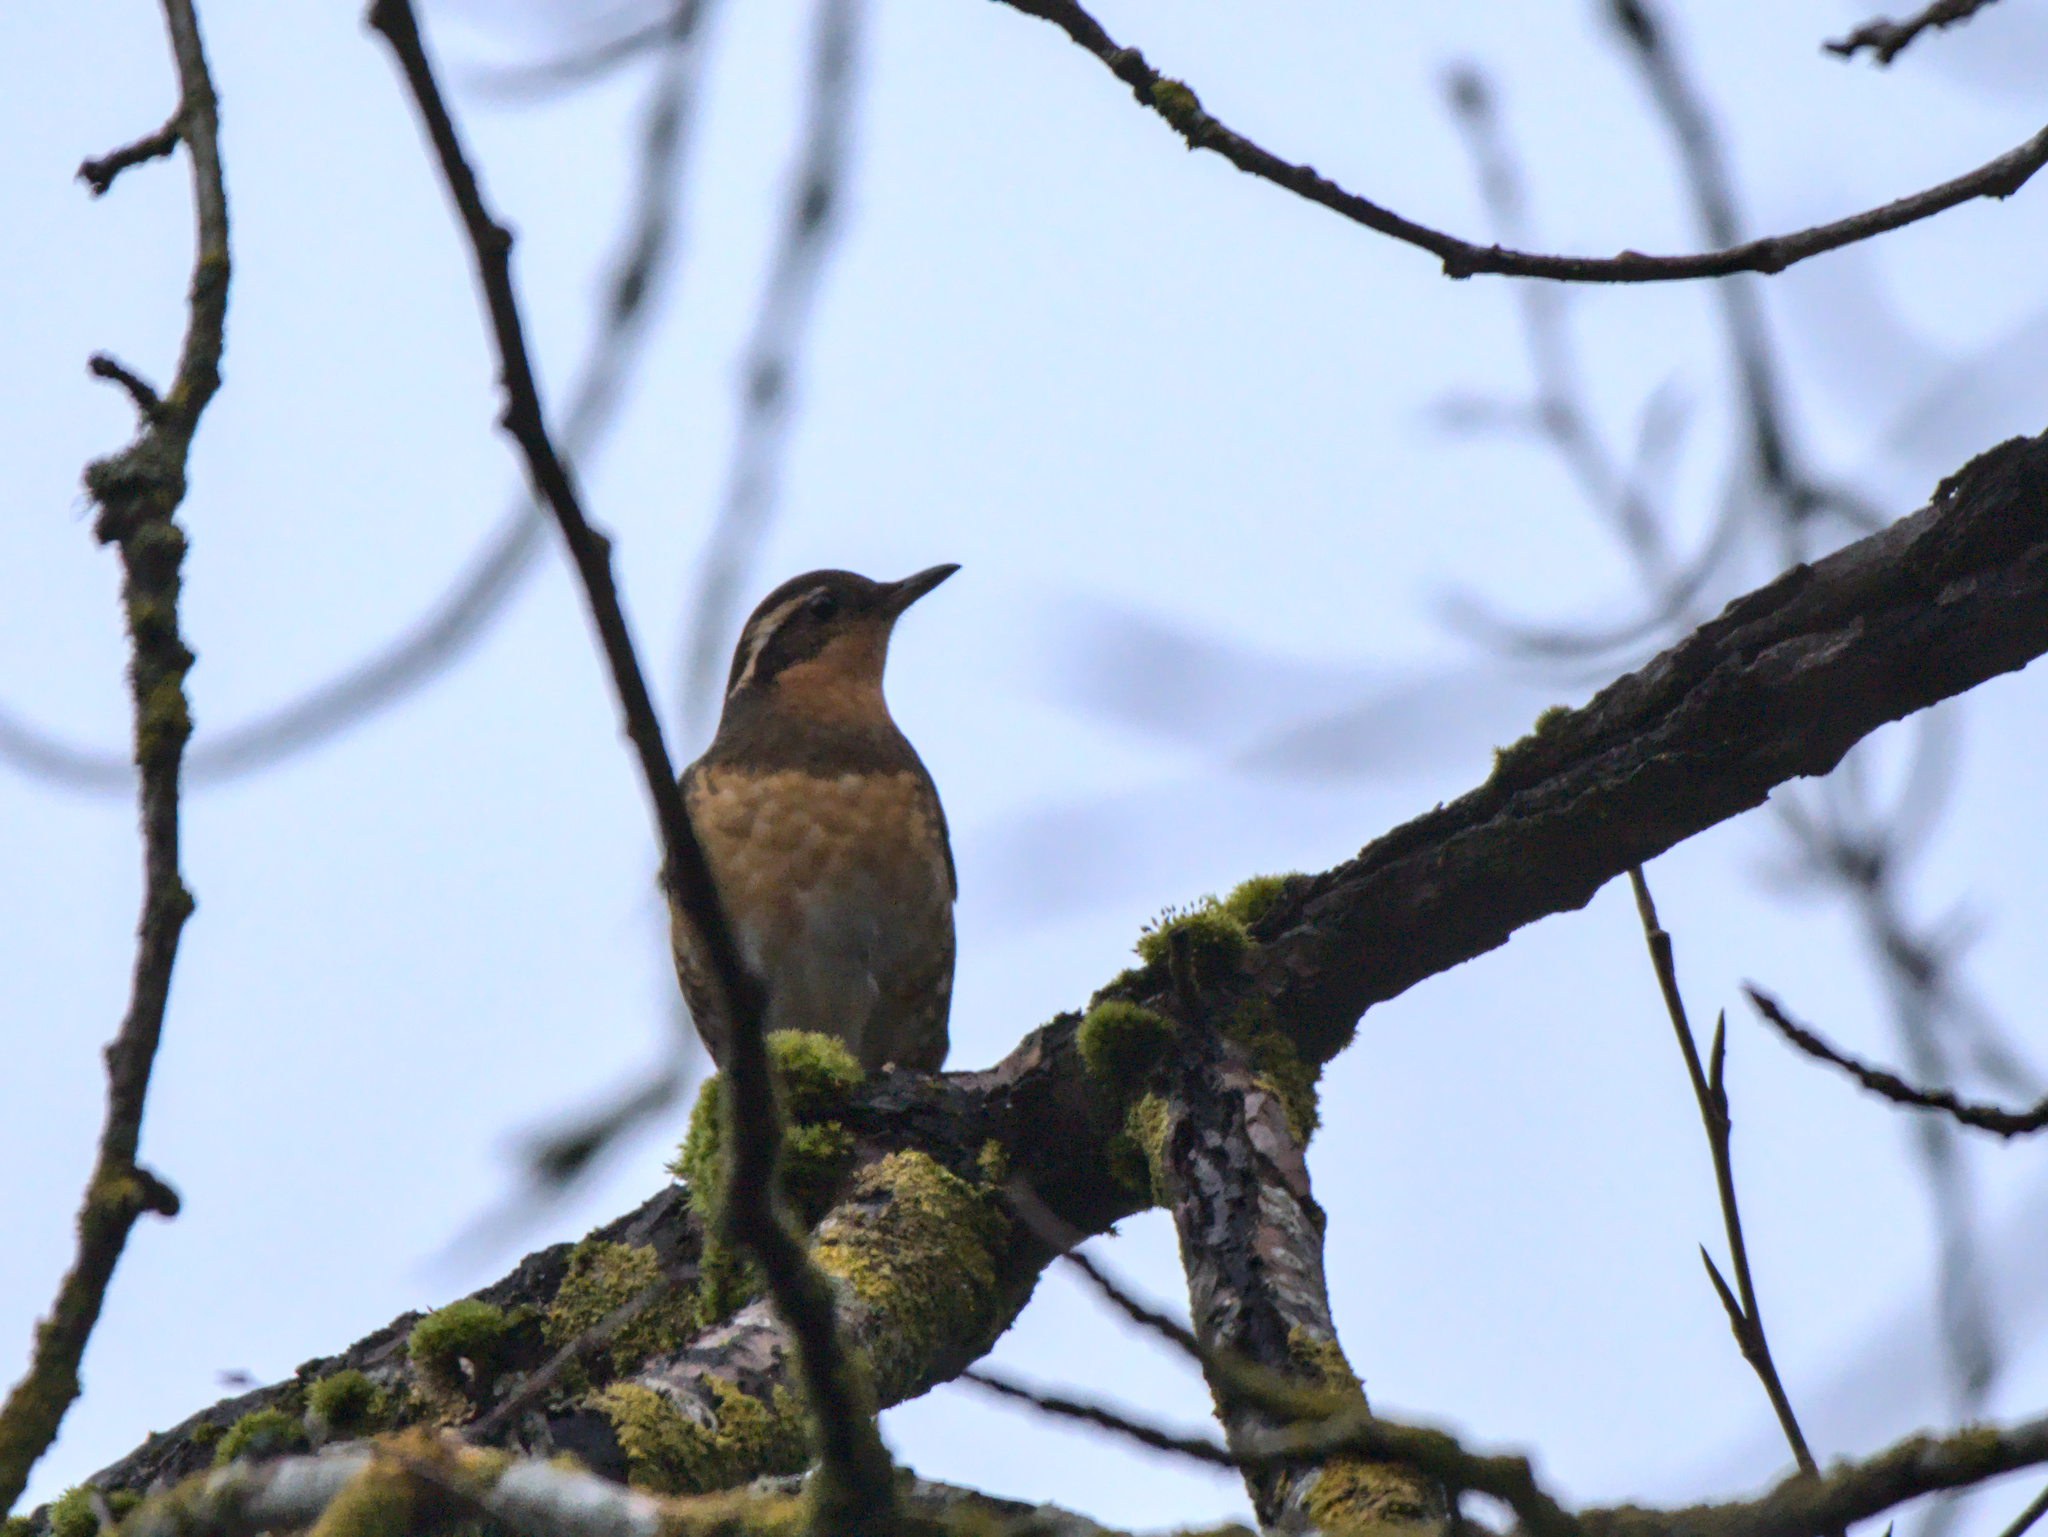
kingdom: Animalia
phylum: Chordata
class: Aves
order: Passeriformes
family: Turdidae
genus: Ixoreus
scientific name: Ixoreus naevius
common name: Varied thrush
